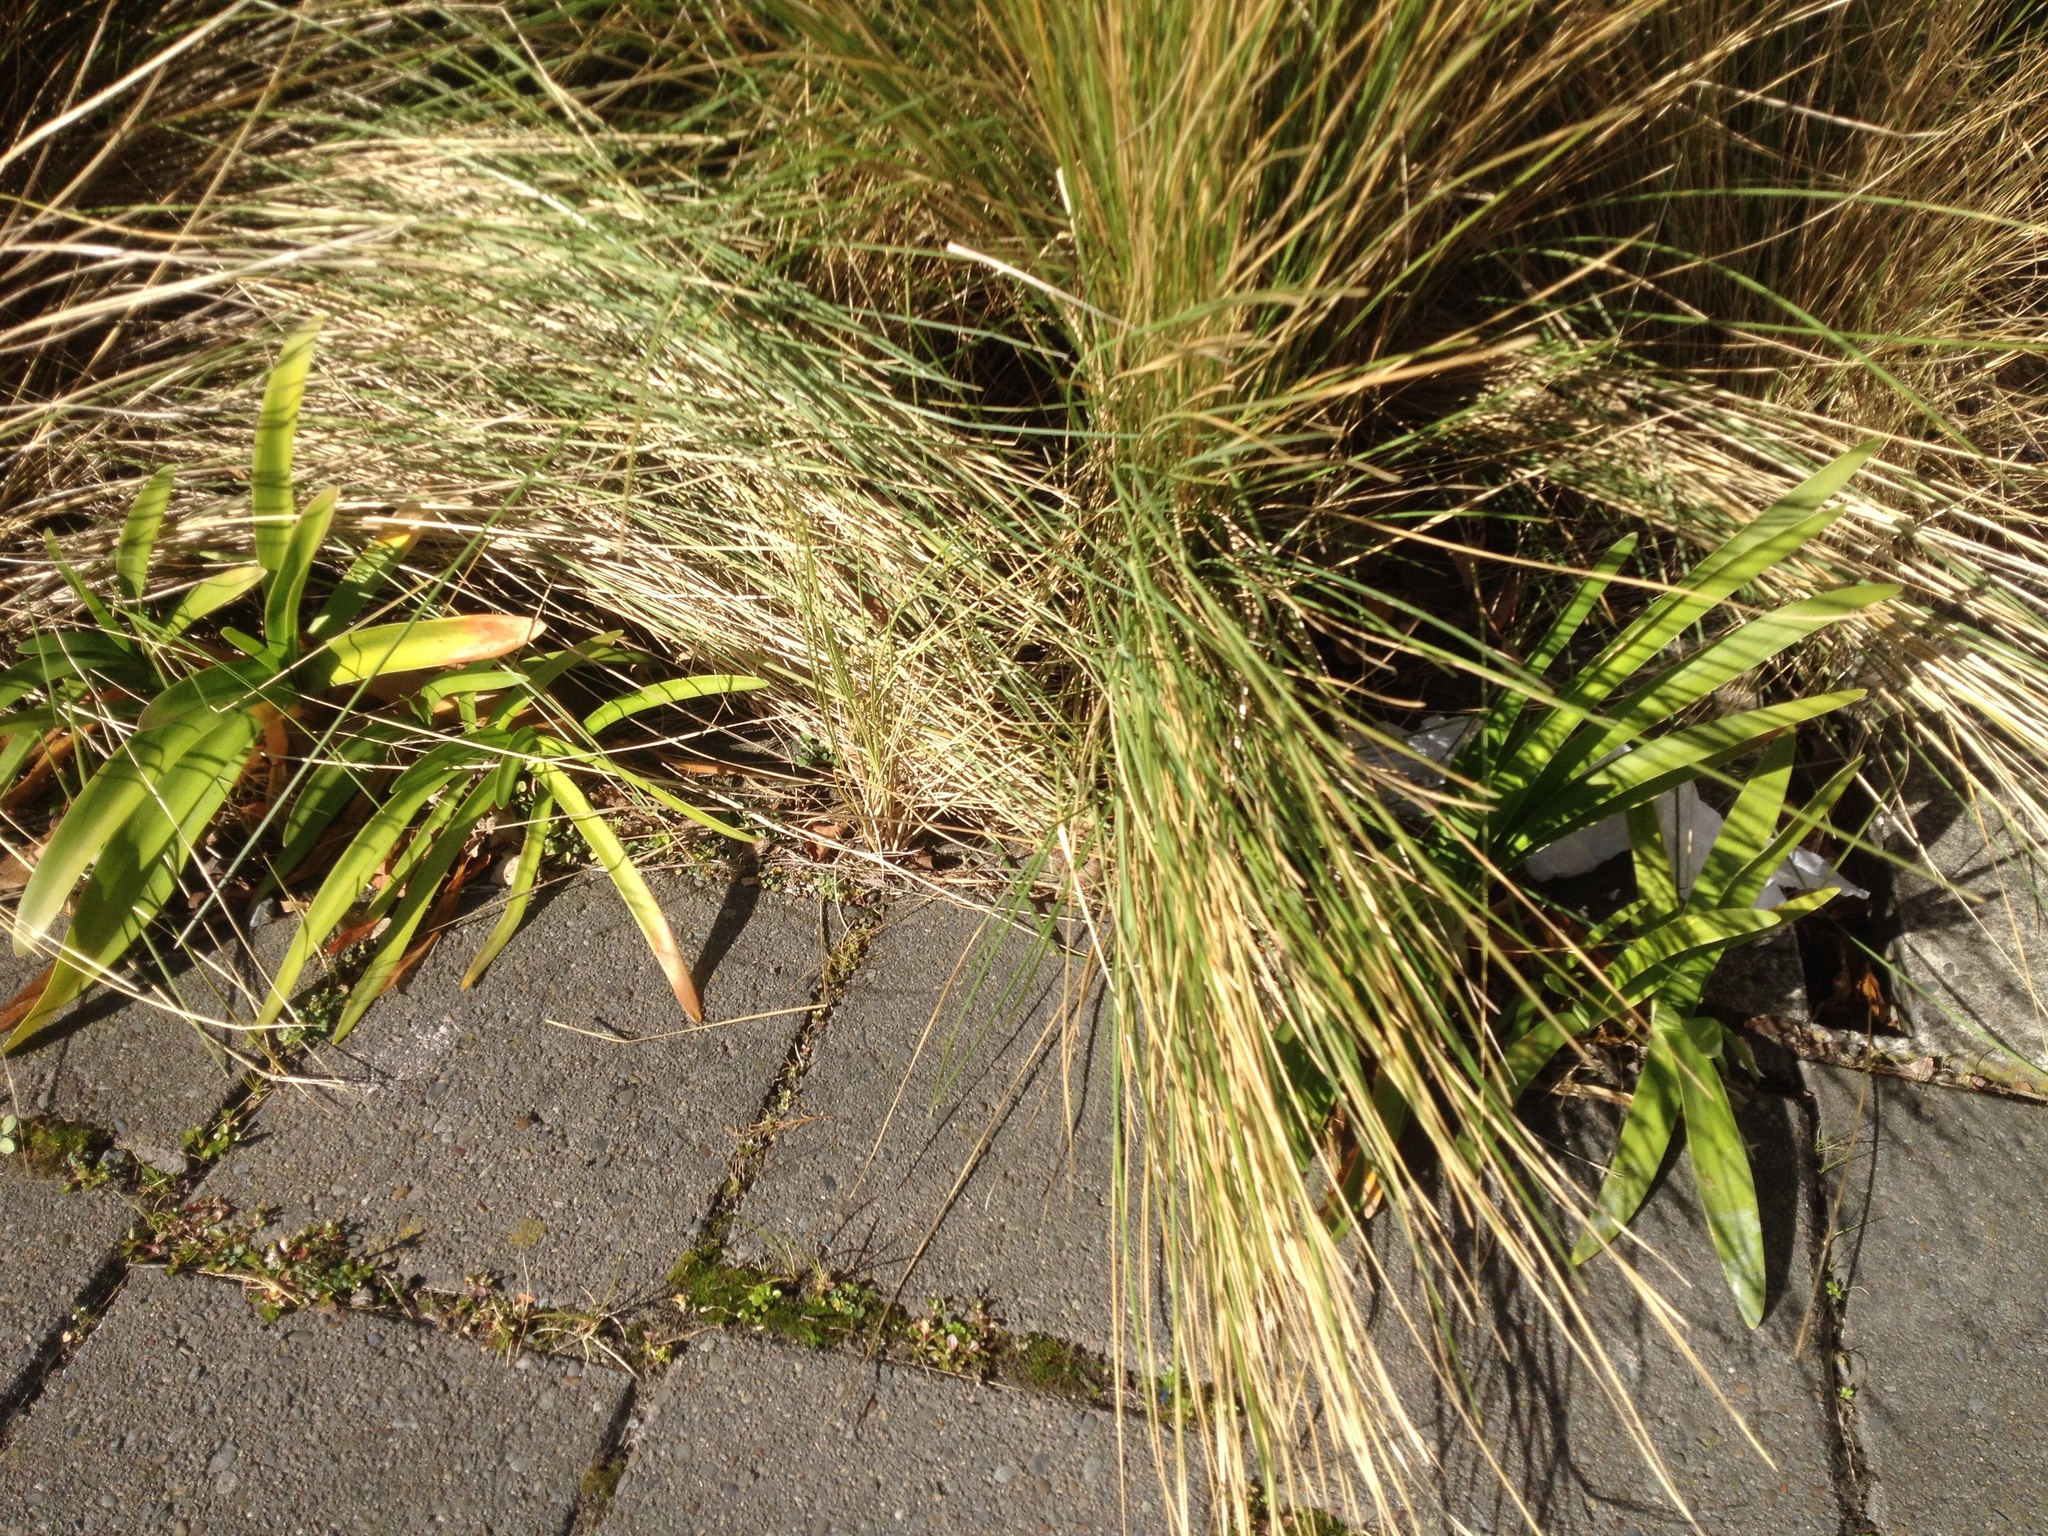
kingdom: Plantae
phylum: Tracheophyta
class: Liliopsida
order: Asparagales
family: Amaryllidaceae
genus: Agapanthus
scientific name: Agapanthus praecox
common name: African-lily
